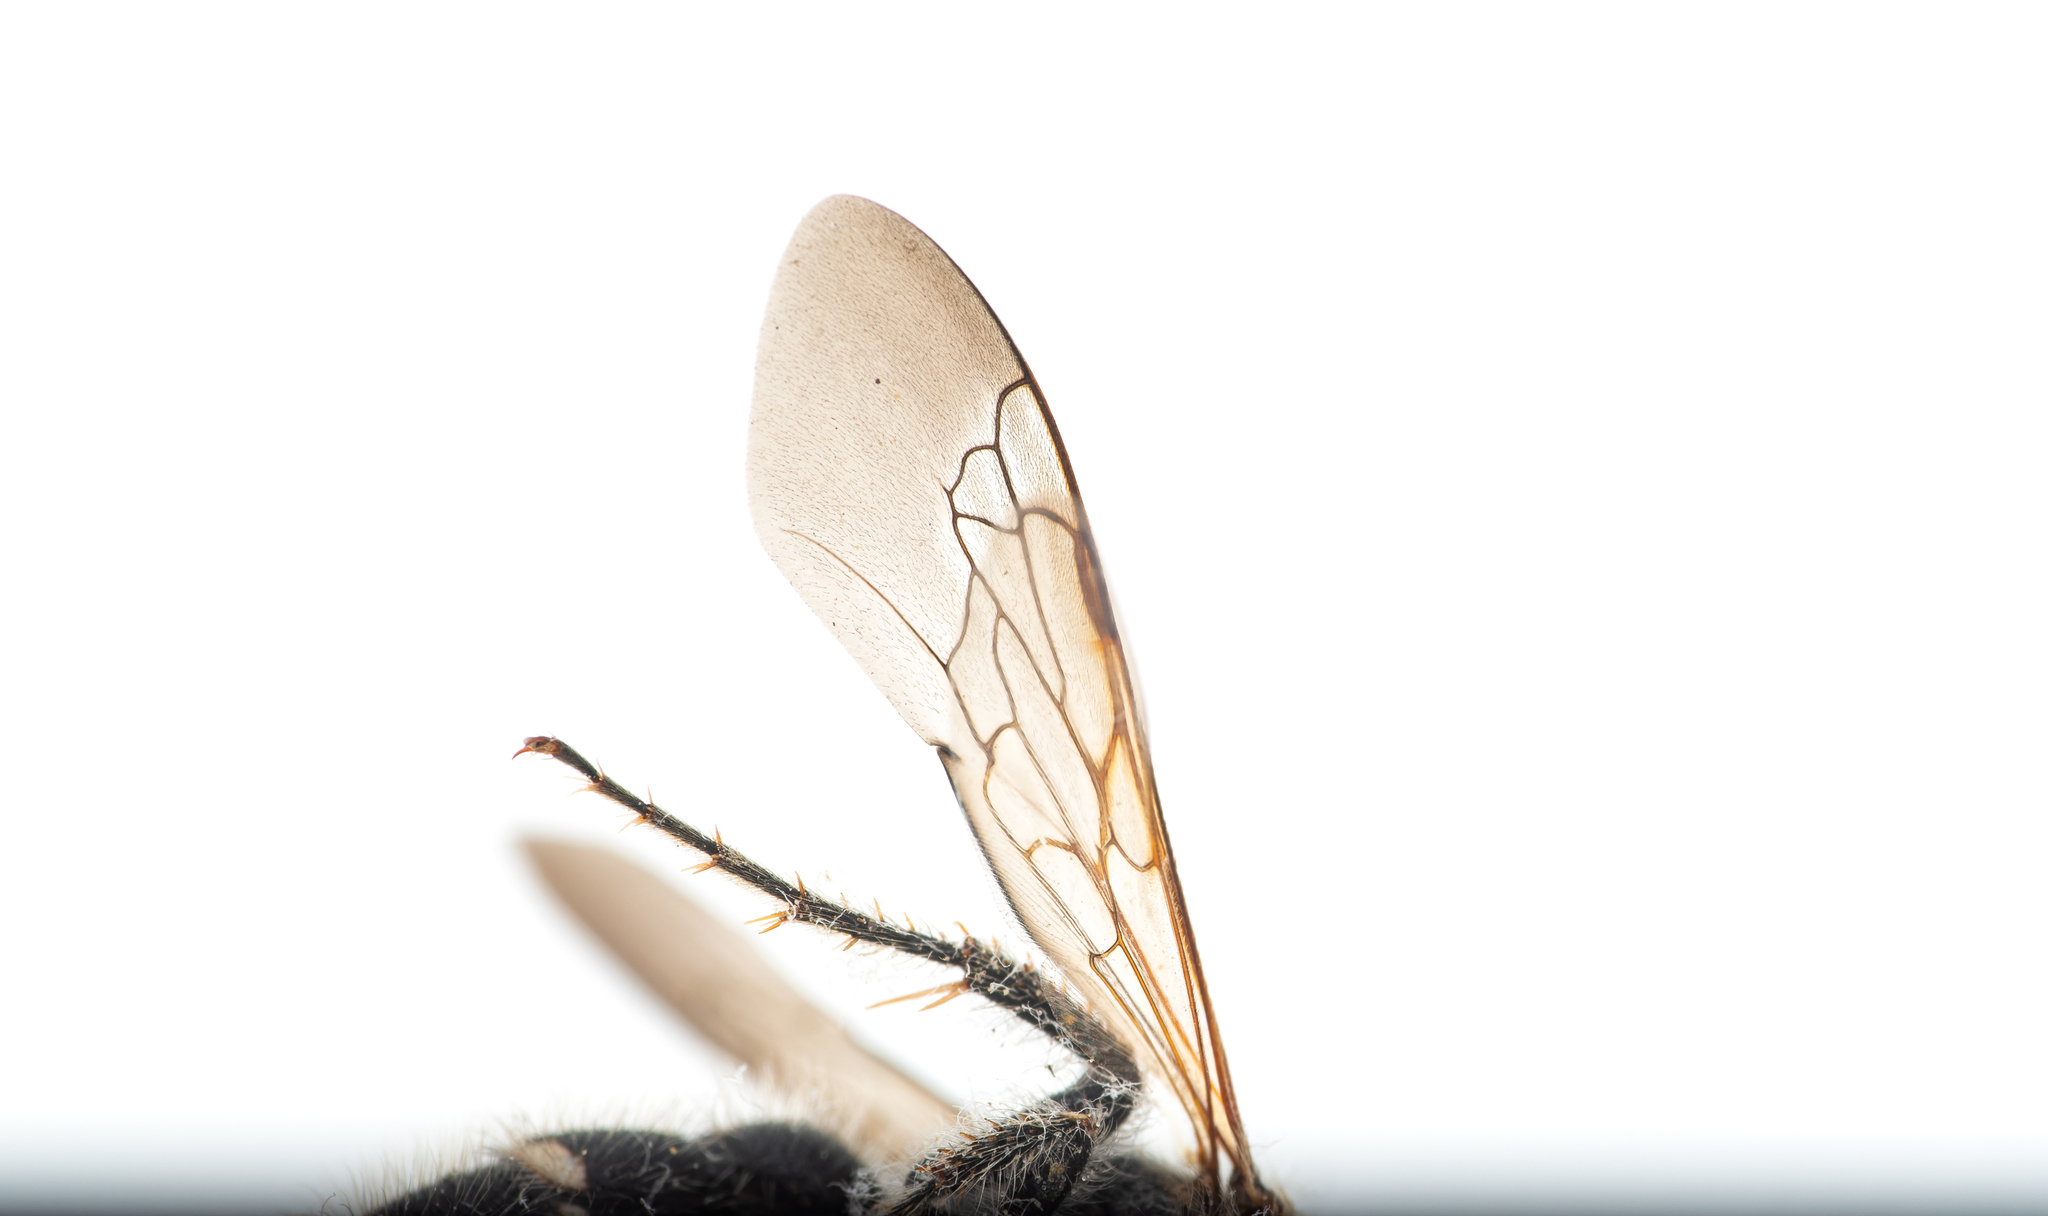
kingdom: Animalia
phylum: Arthropoda
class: Insecta
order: Hymenoptera
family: Scoliidae
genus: Colpa
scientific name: Colpa quinquecincta
